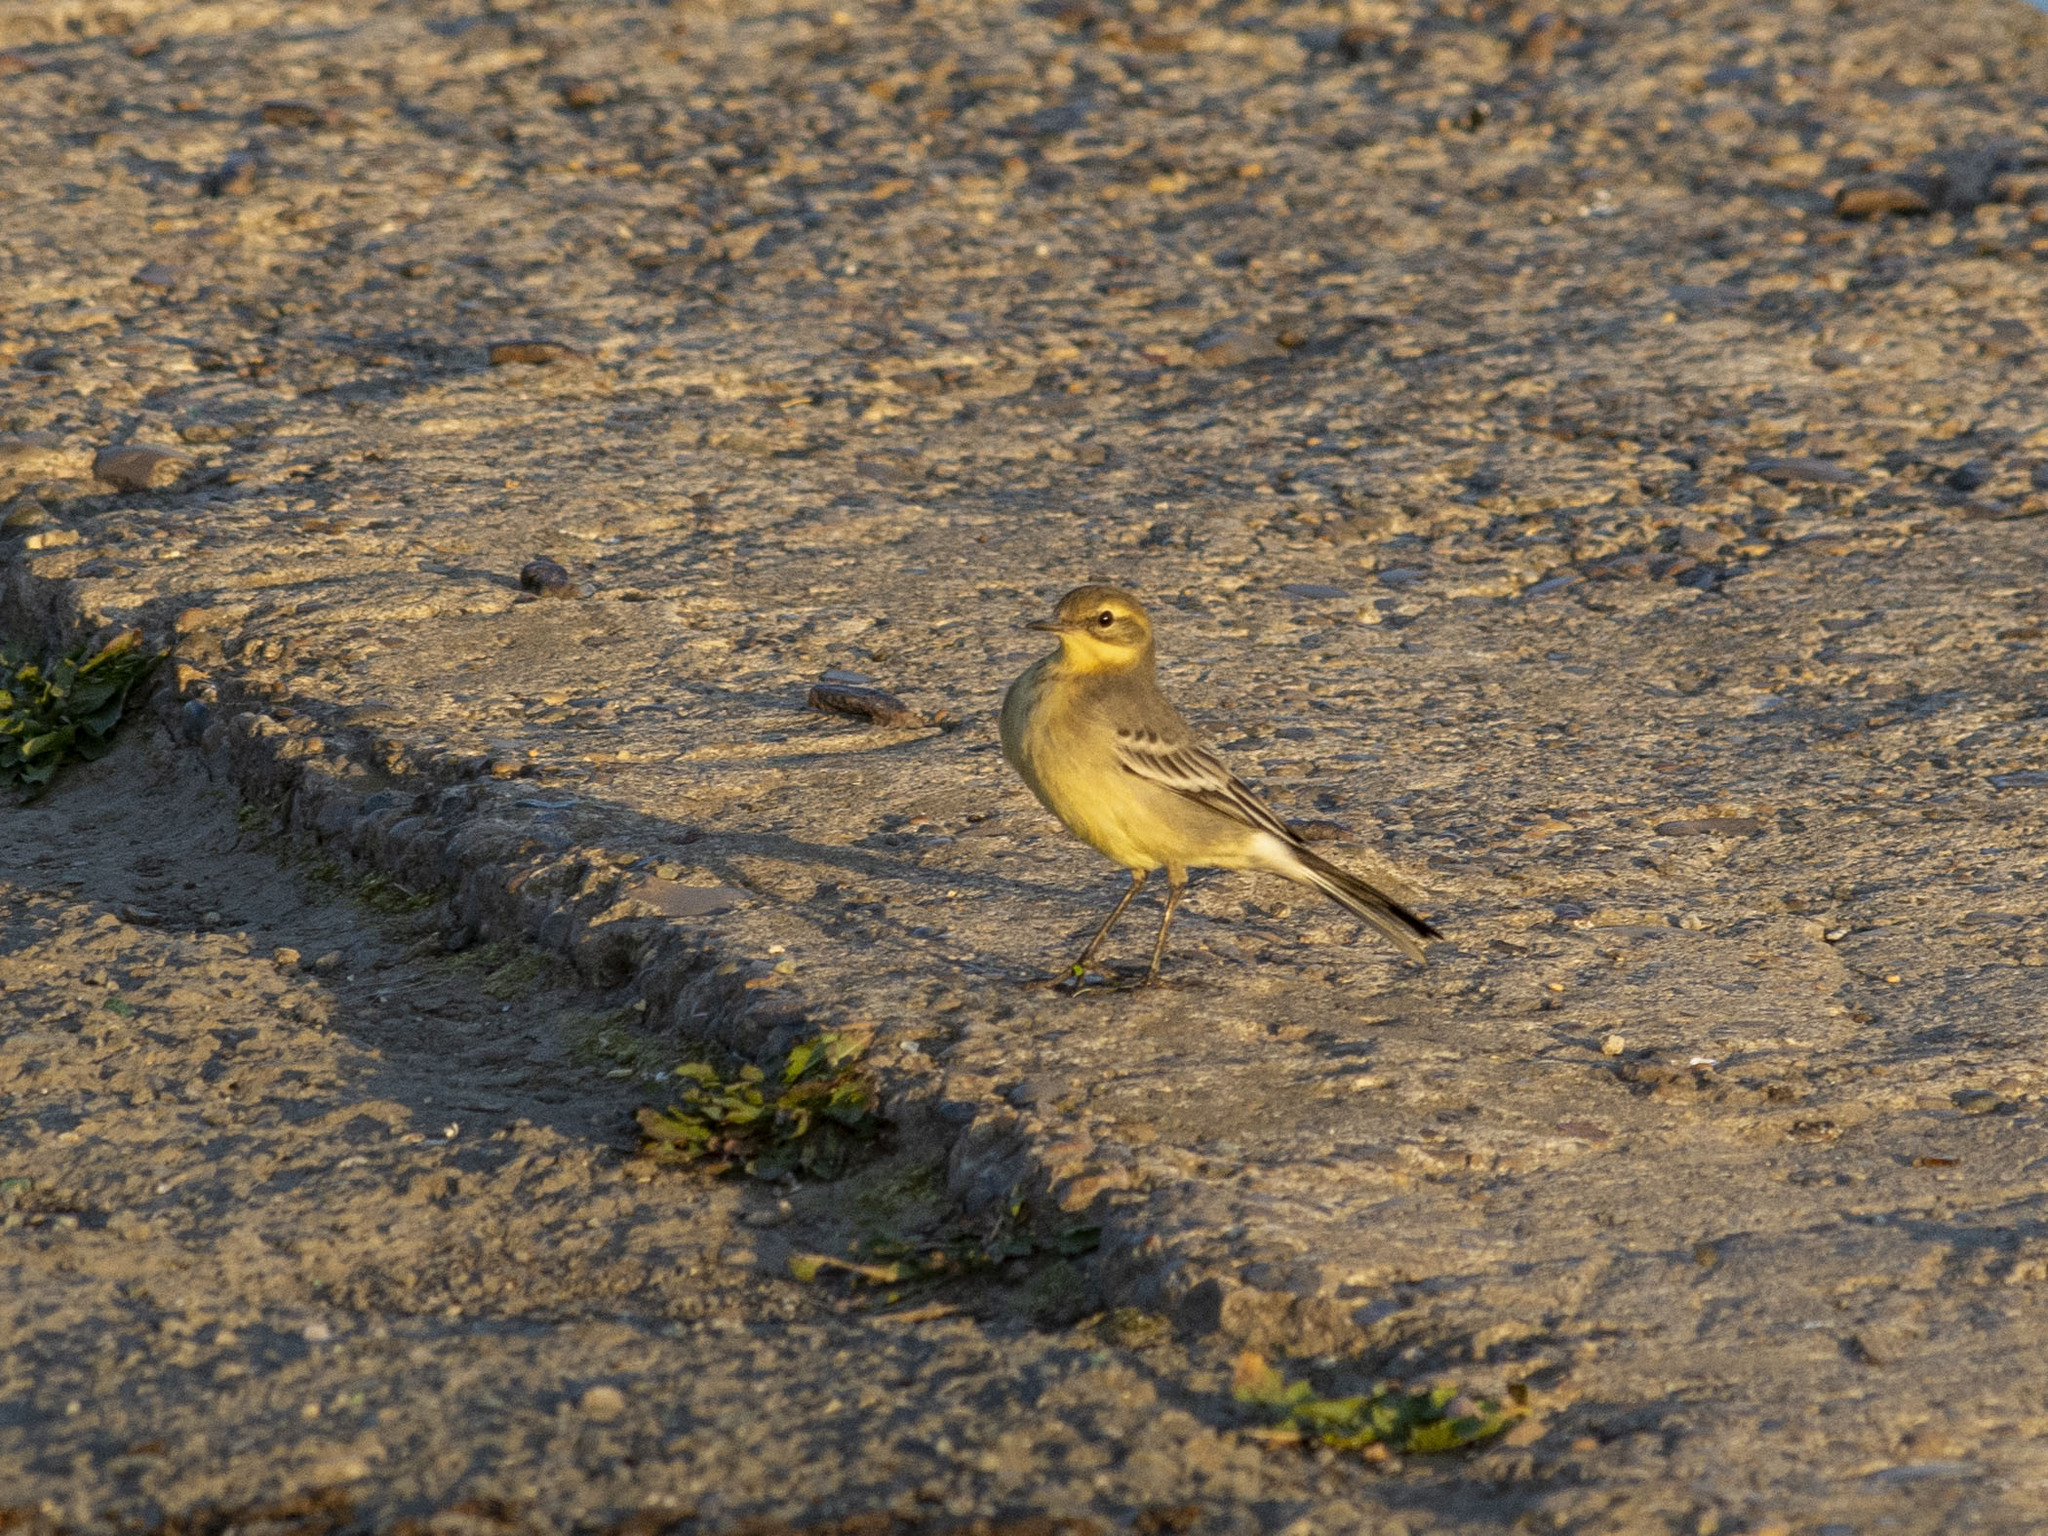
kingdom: Animalia
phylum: Chordata
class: Aves
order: Passeriformes
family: Motacillidae
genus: Motacilla
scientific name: Motacilla citreola
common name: Citrine wagtail
